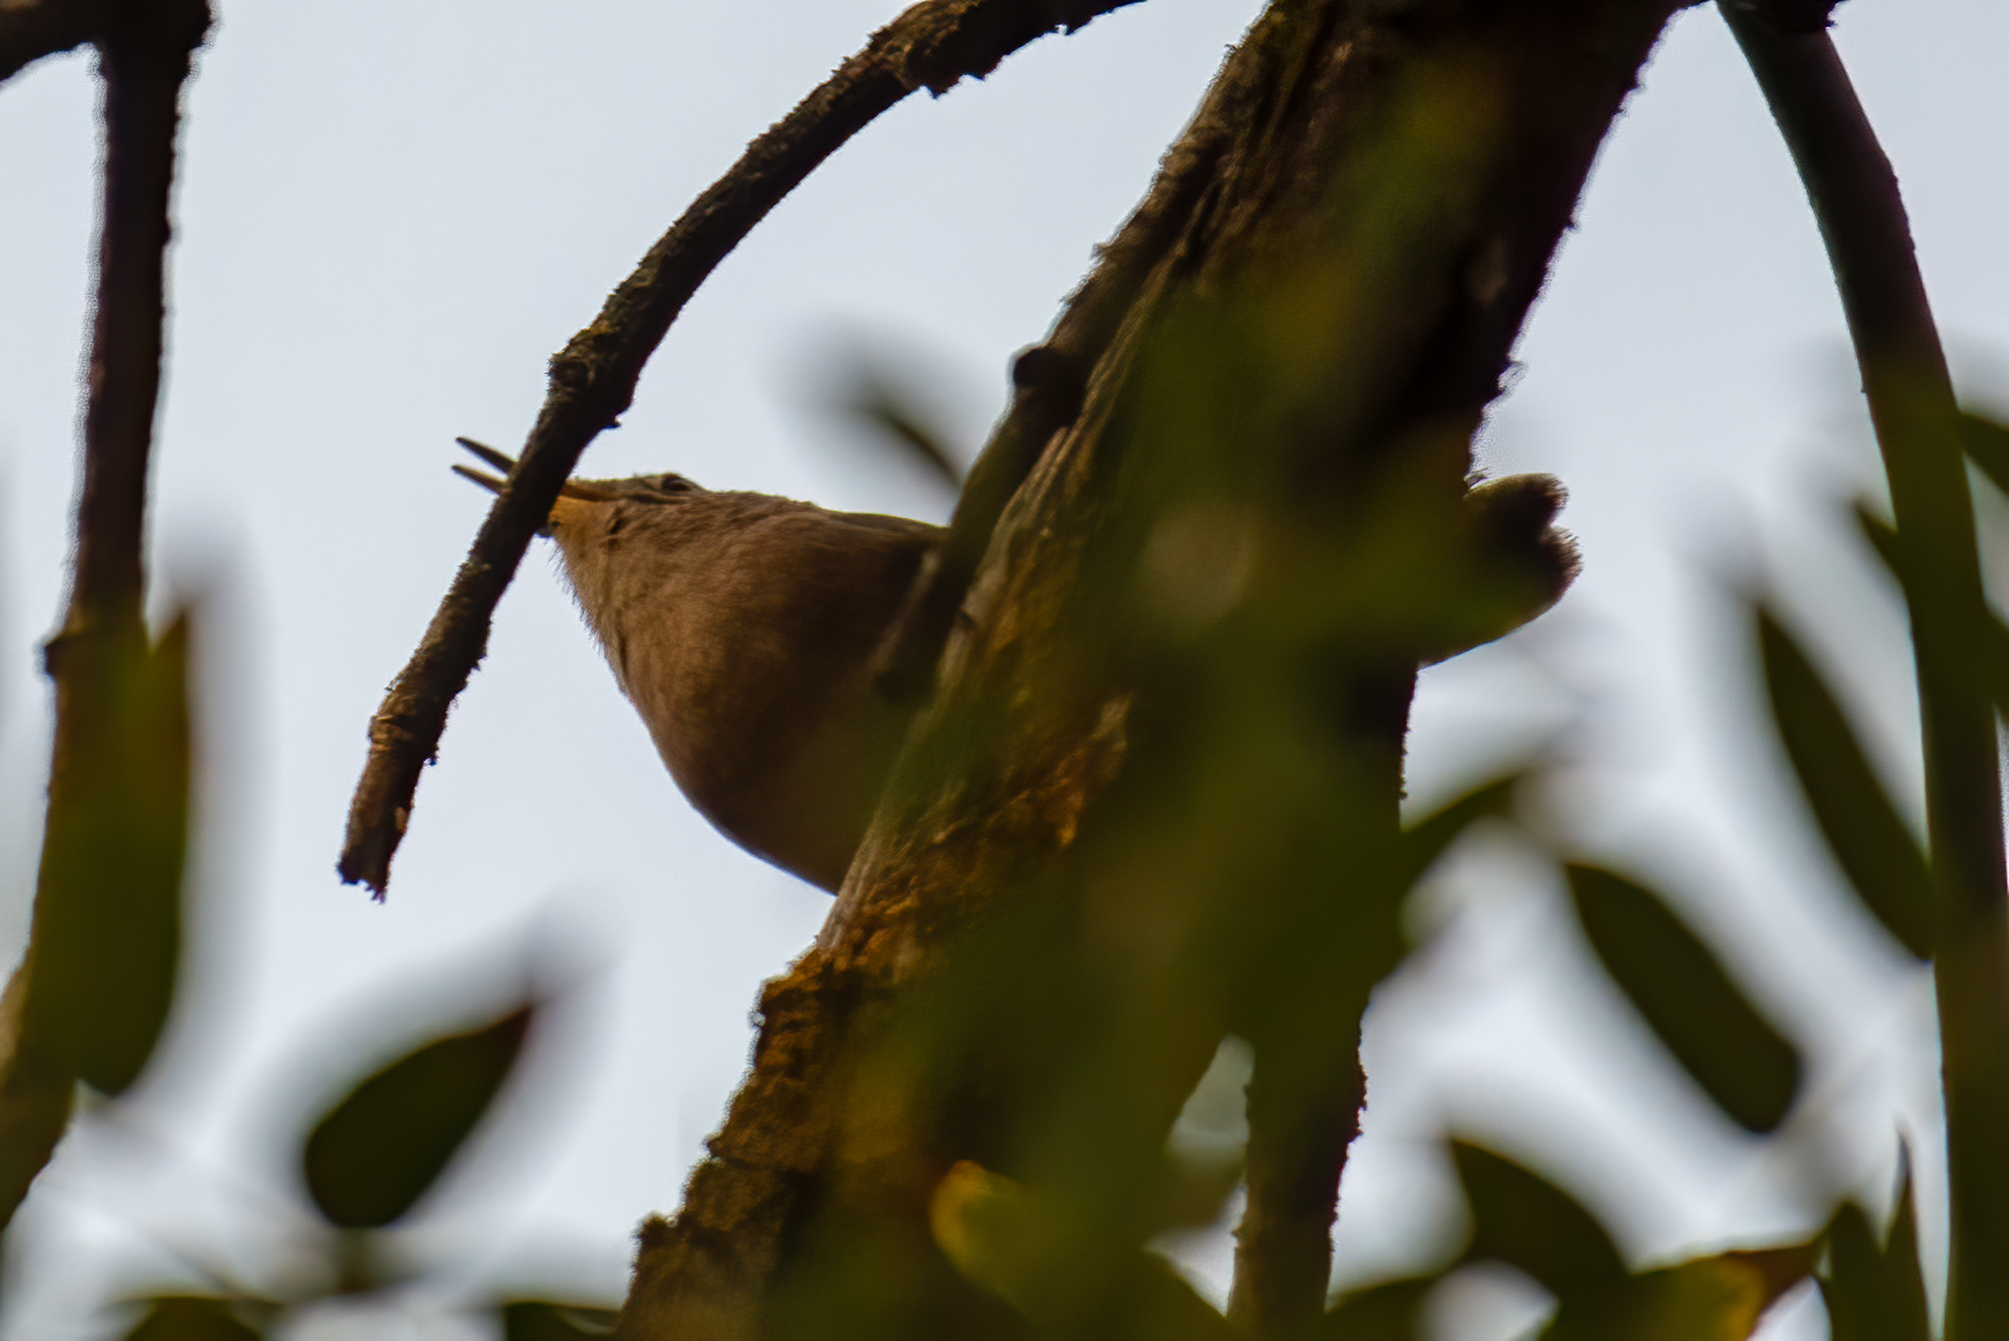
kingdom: Animalia
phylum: Chordata
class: Aves
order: Passeriformes
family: Troglodytidae
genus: Troglodytes
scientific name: Troglodytes aedon
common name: House wren
